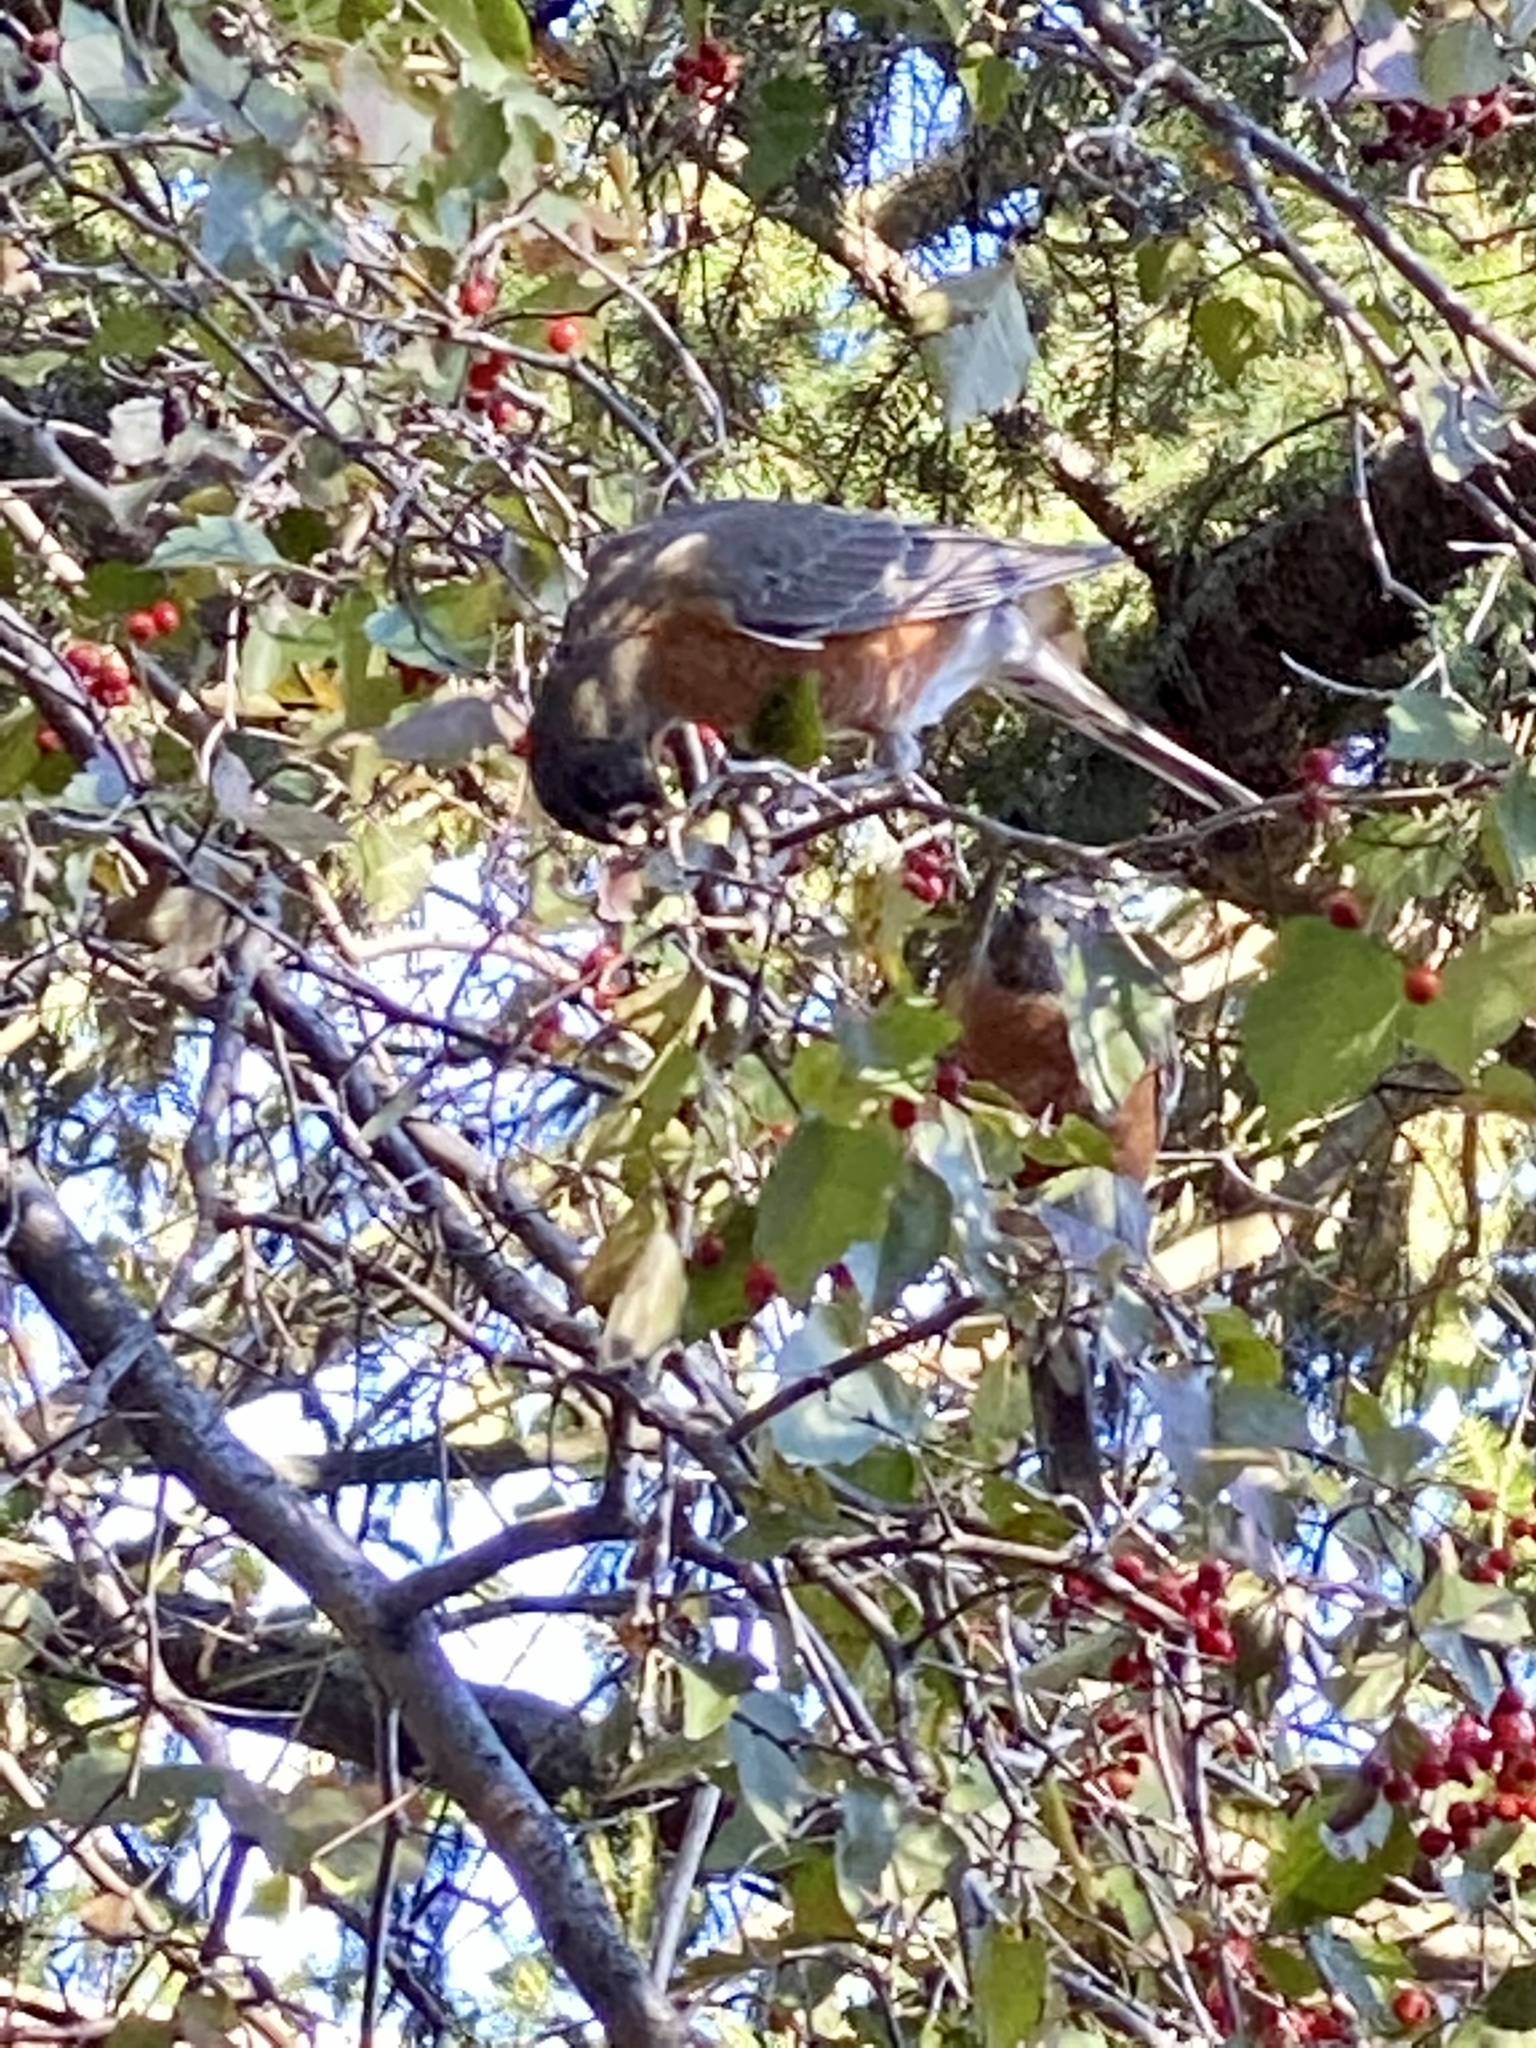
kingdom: Animalia
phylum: Chordata
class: Aves
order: Passeriformes
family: Turdidae
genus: Turdus
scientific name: Turdus migratorius
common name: American robin
